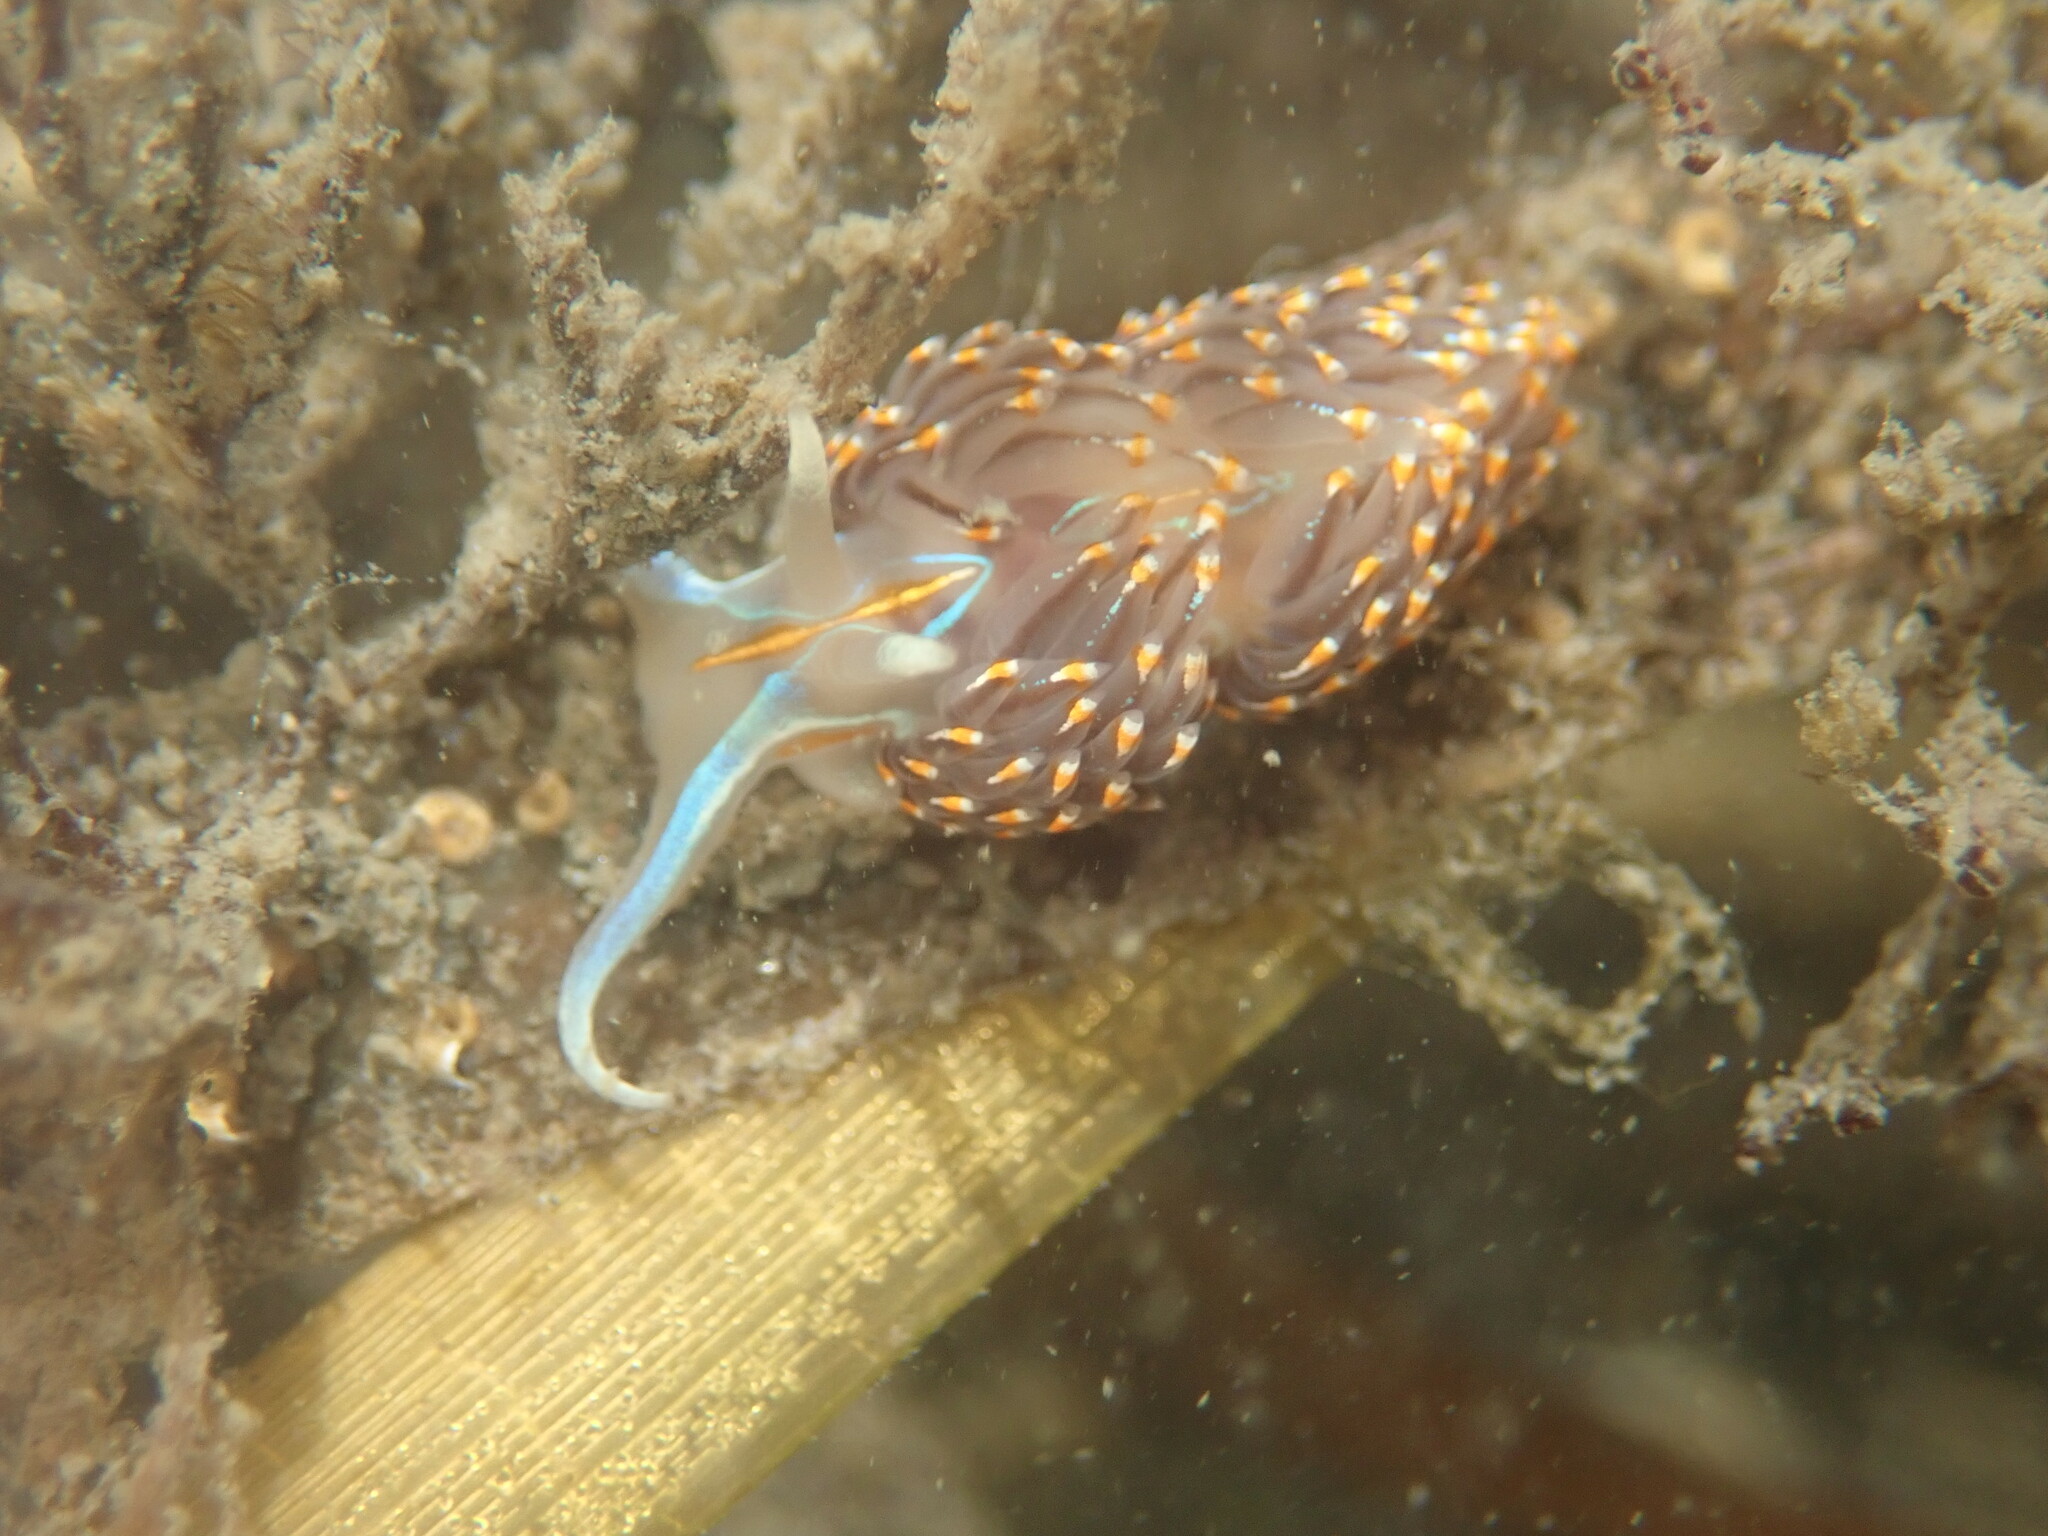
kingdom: Animalia
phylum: Mollusca
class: Gastropoda
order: Nudibranchia
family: Myrrhinidae
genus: Hermissenda
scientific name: Hermissenda opalescens
